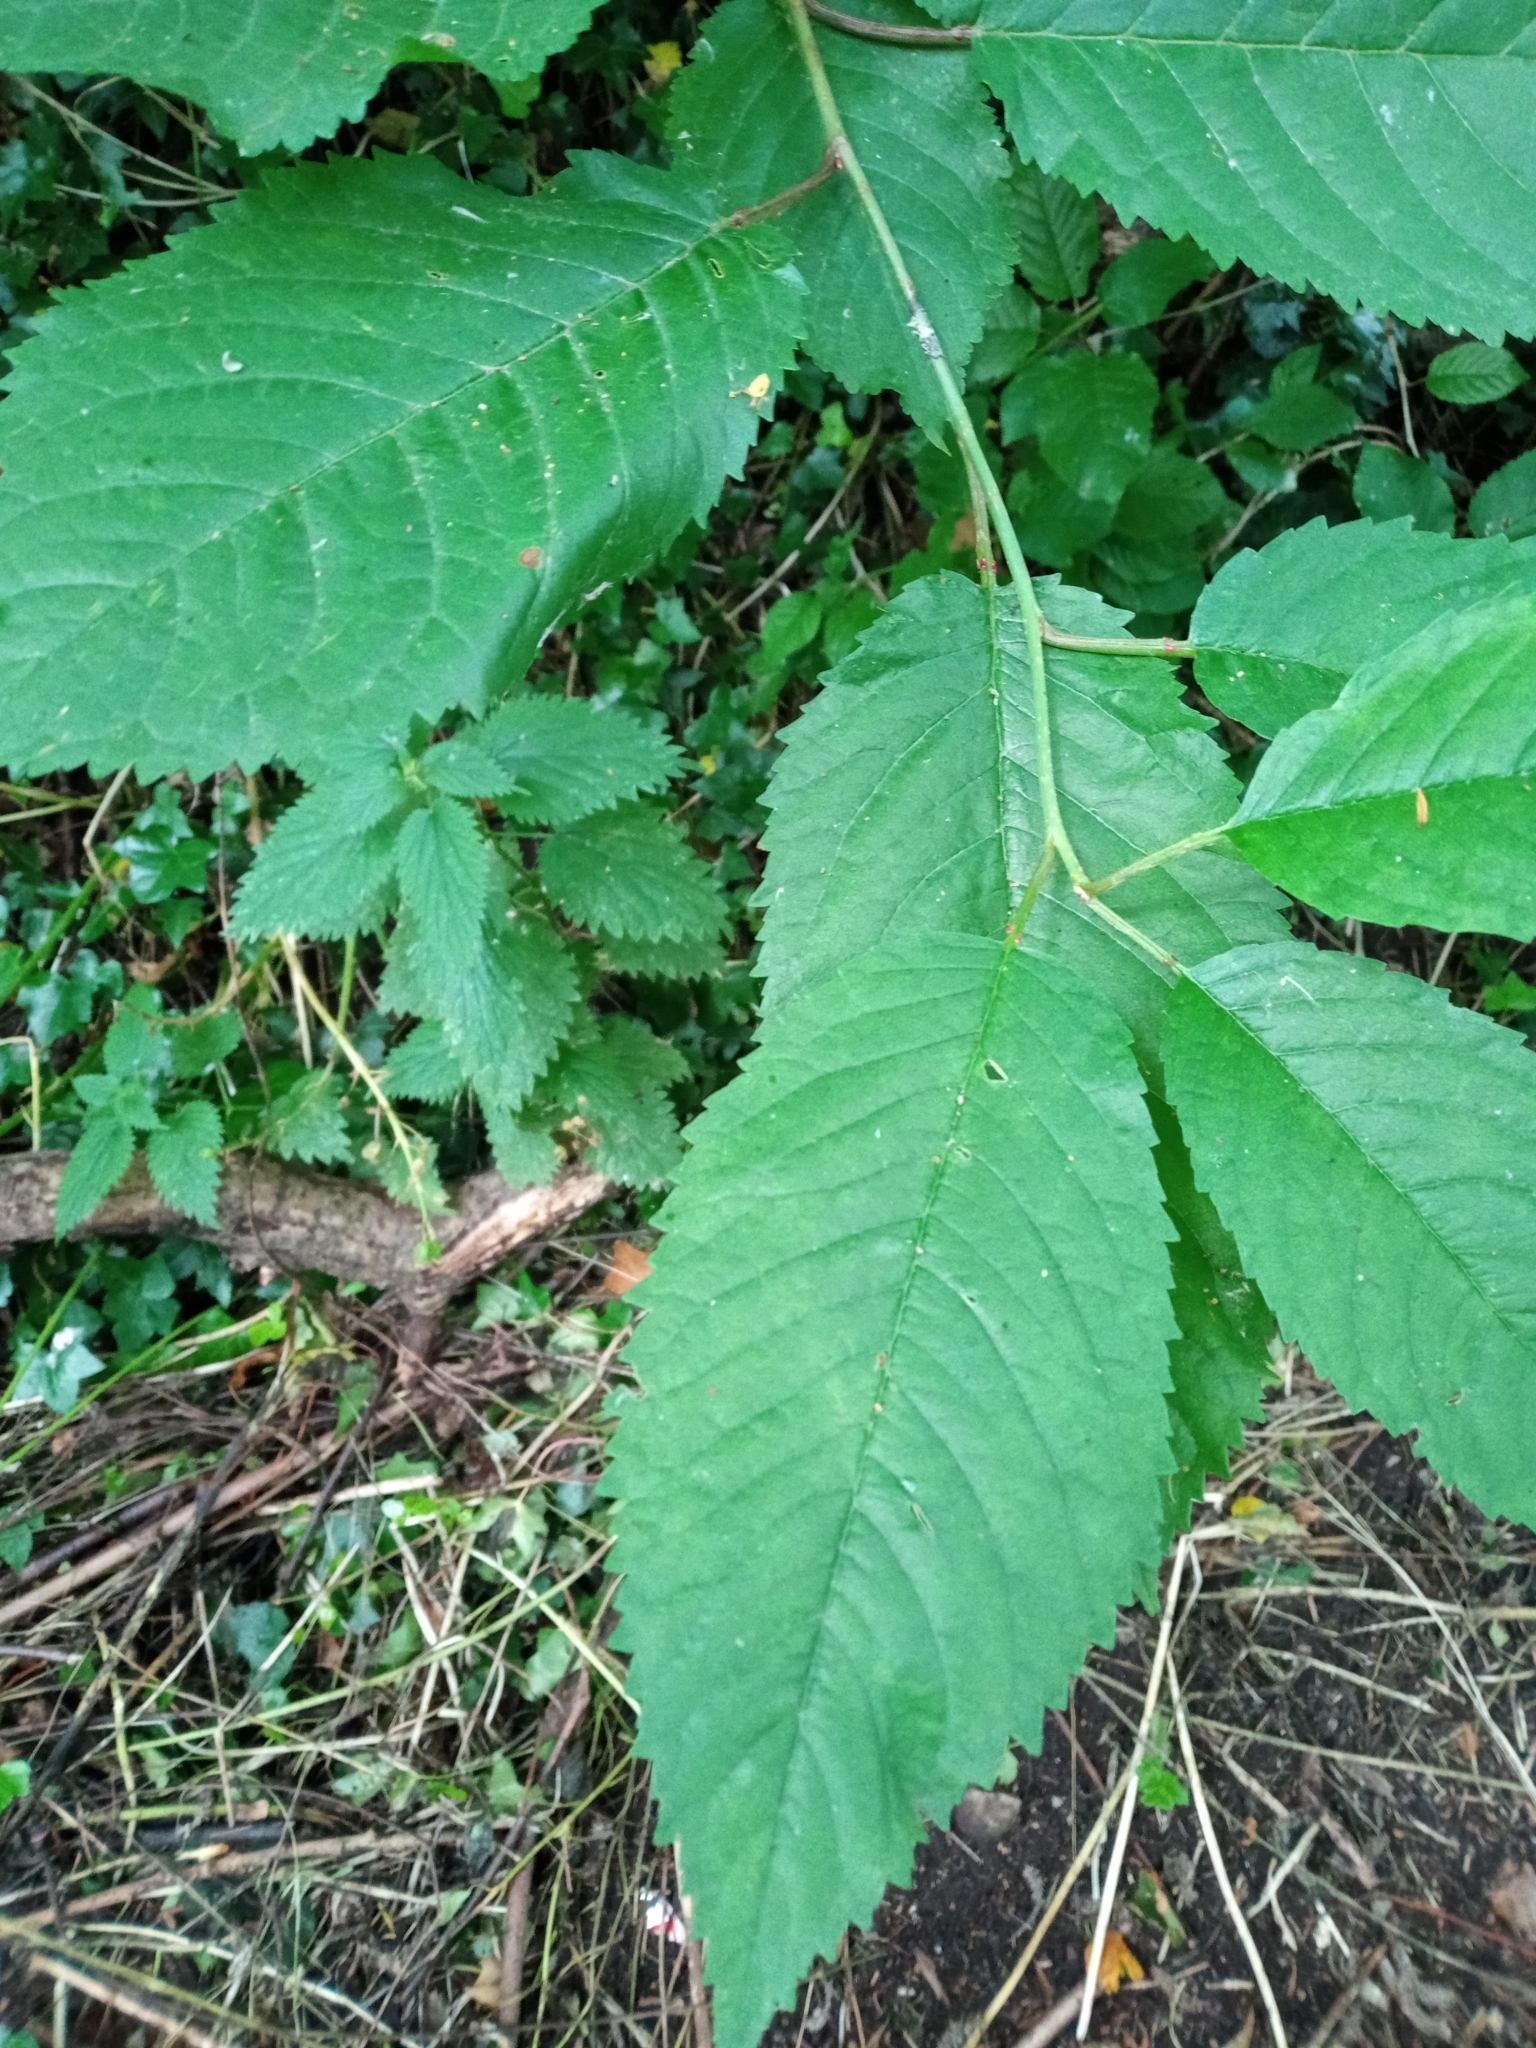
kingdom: Plantae
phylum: Tracheophyta
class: Magnoliopsida
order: Rosales
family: Rosaceae
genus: Prunus
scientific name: Prunus avium
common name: Sweet cherry
